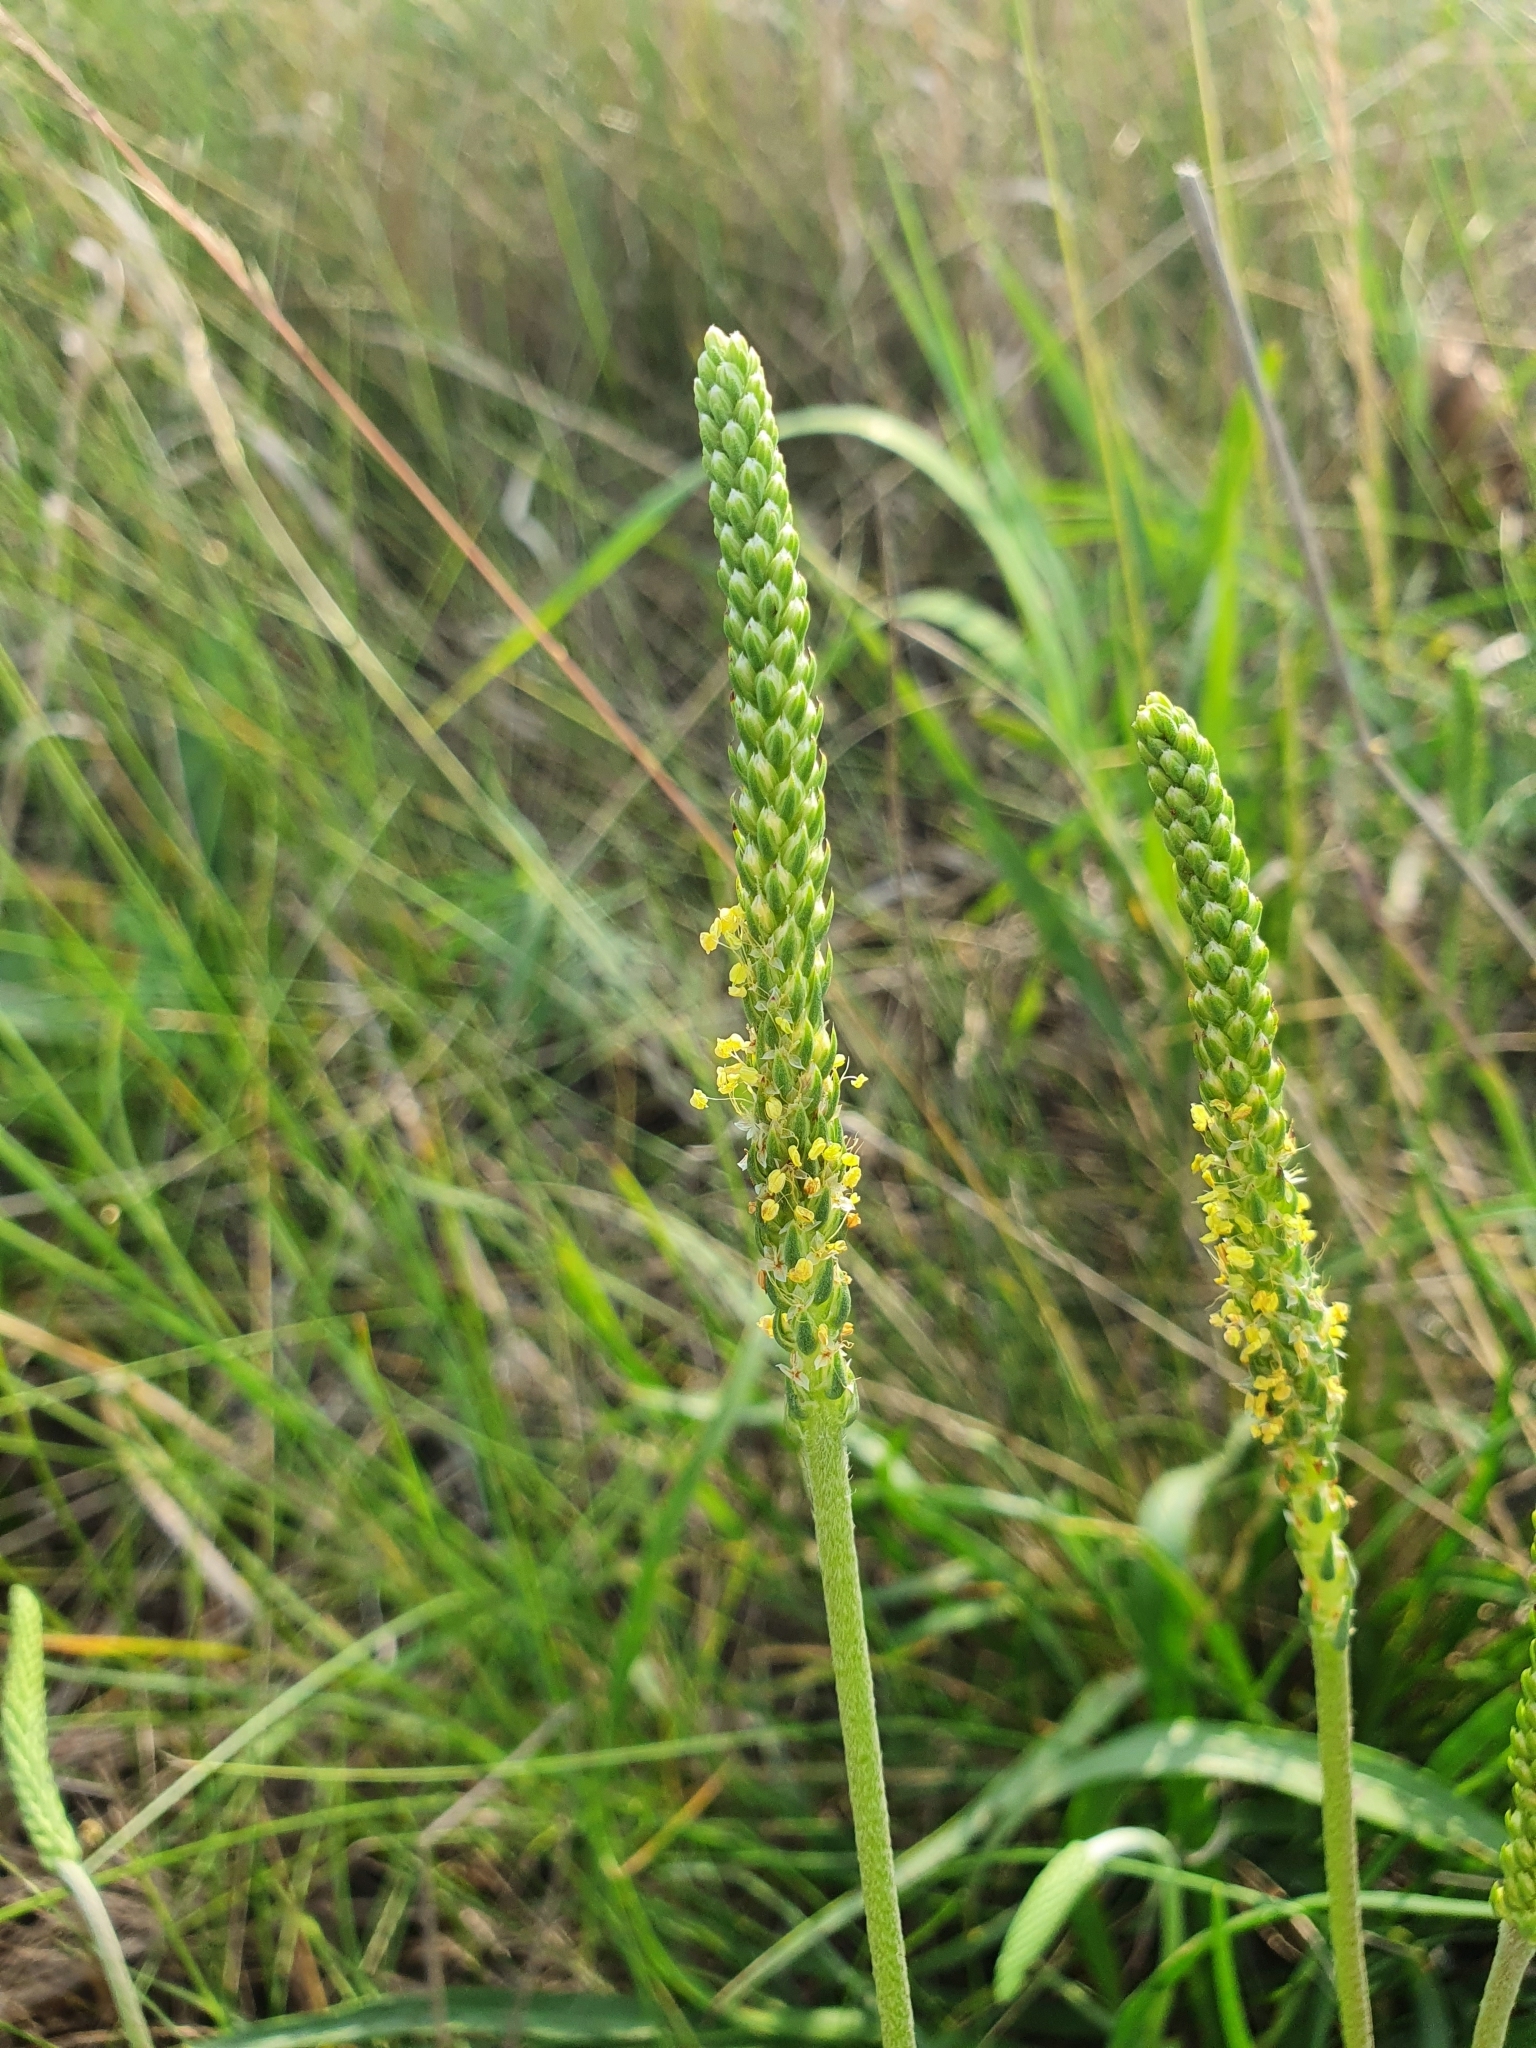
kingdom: Plantae
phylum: Tracheophyta
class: Magnoliopsida
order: Lamiales
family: Plantaginaceae
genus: Plantago
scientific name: Plantago salsa
